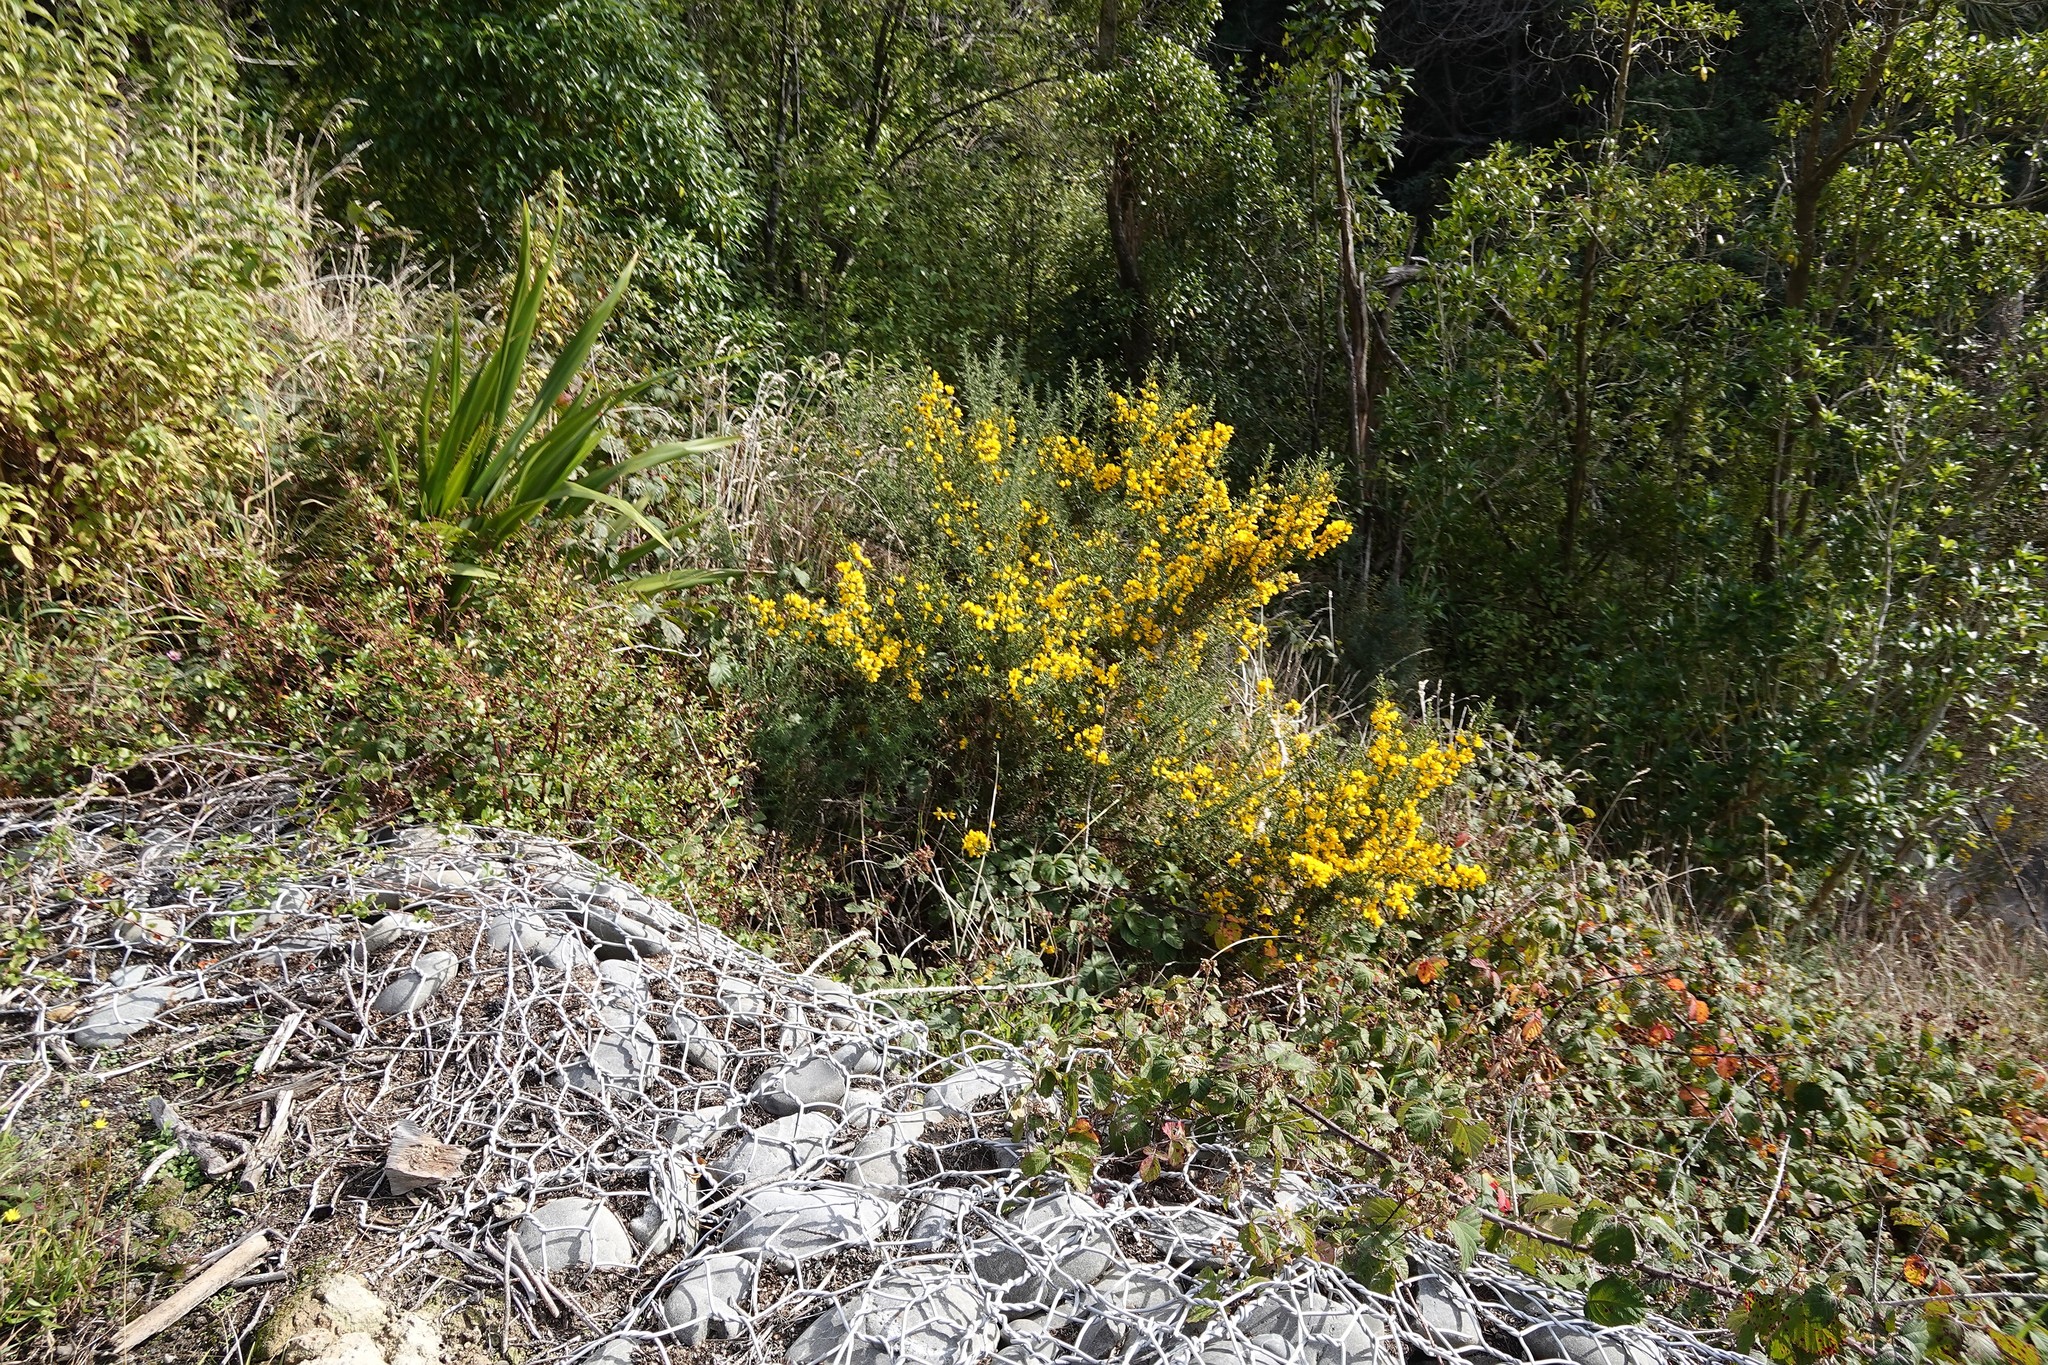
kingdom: Plantae
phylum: Tracheophyta
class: Magnoliopsida
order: Fabales
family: Fabaceae
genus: Ulex
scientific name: Ulex europaeus
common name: Common gorse
